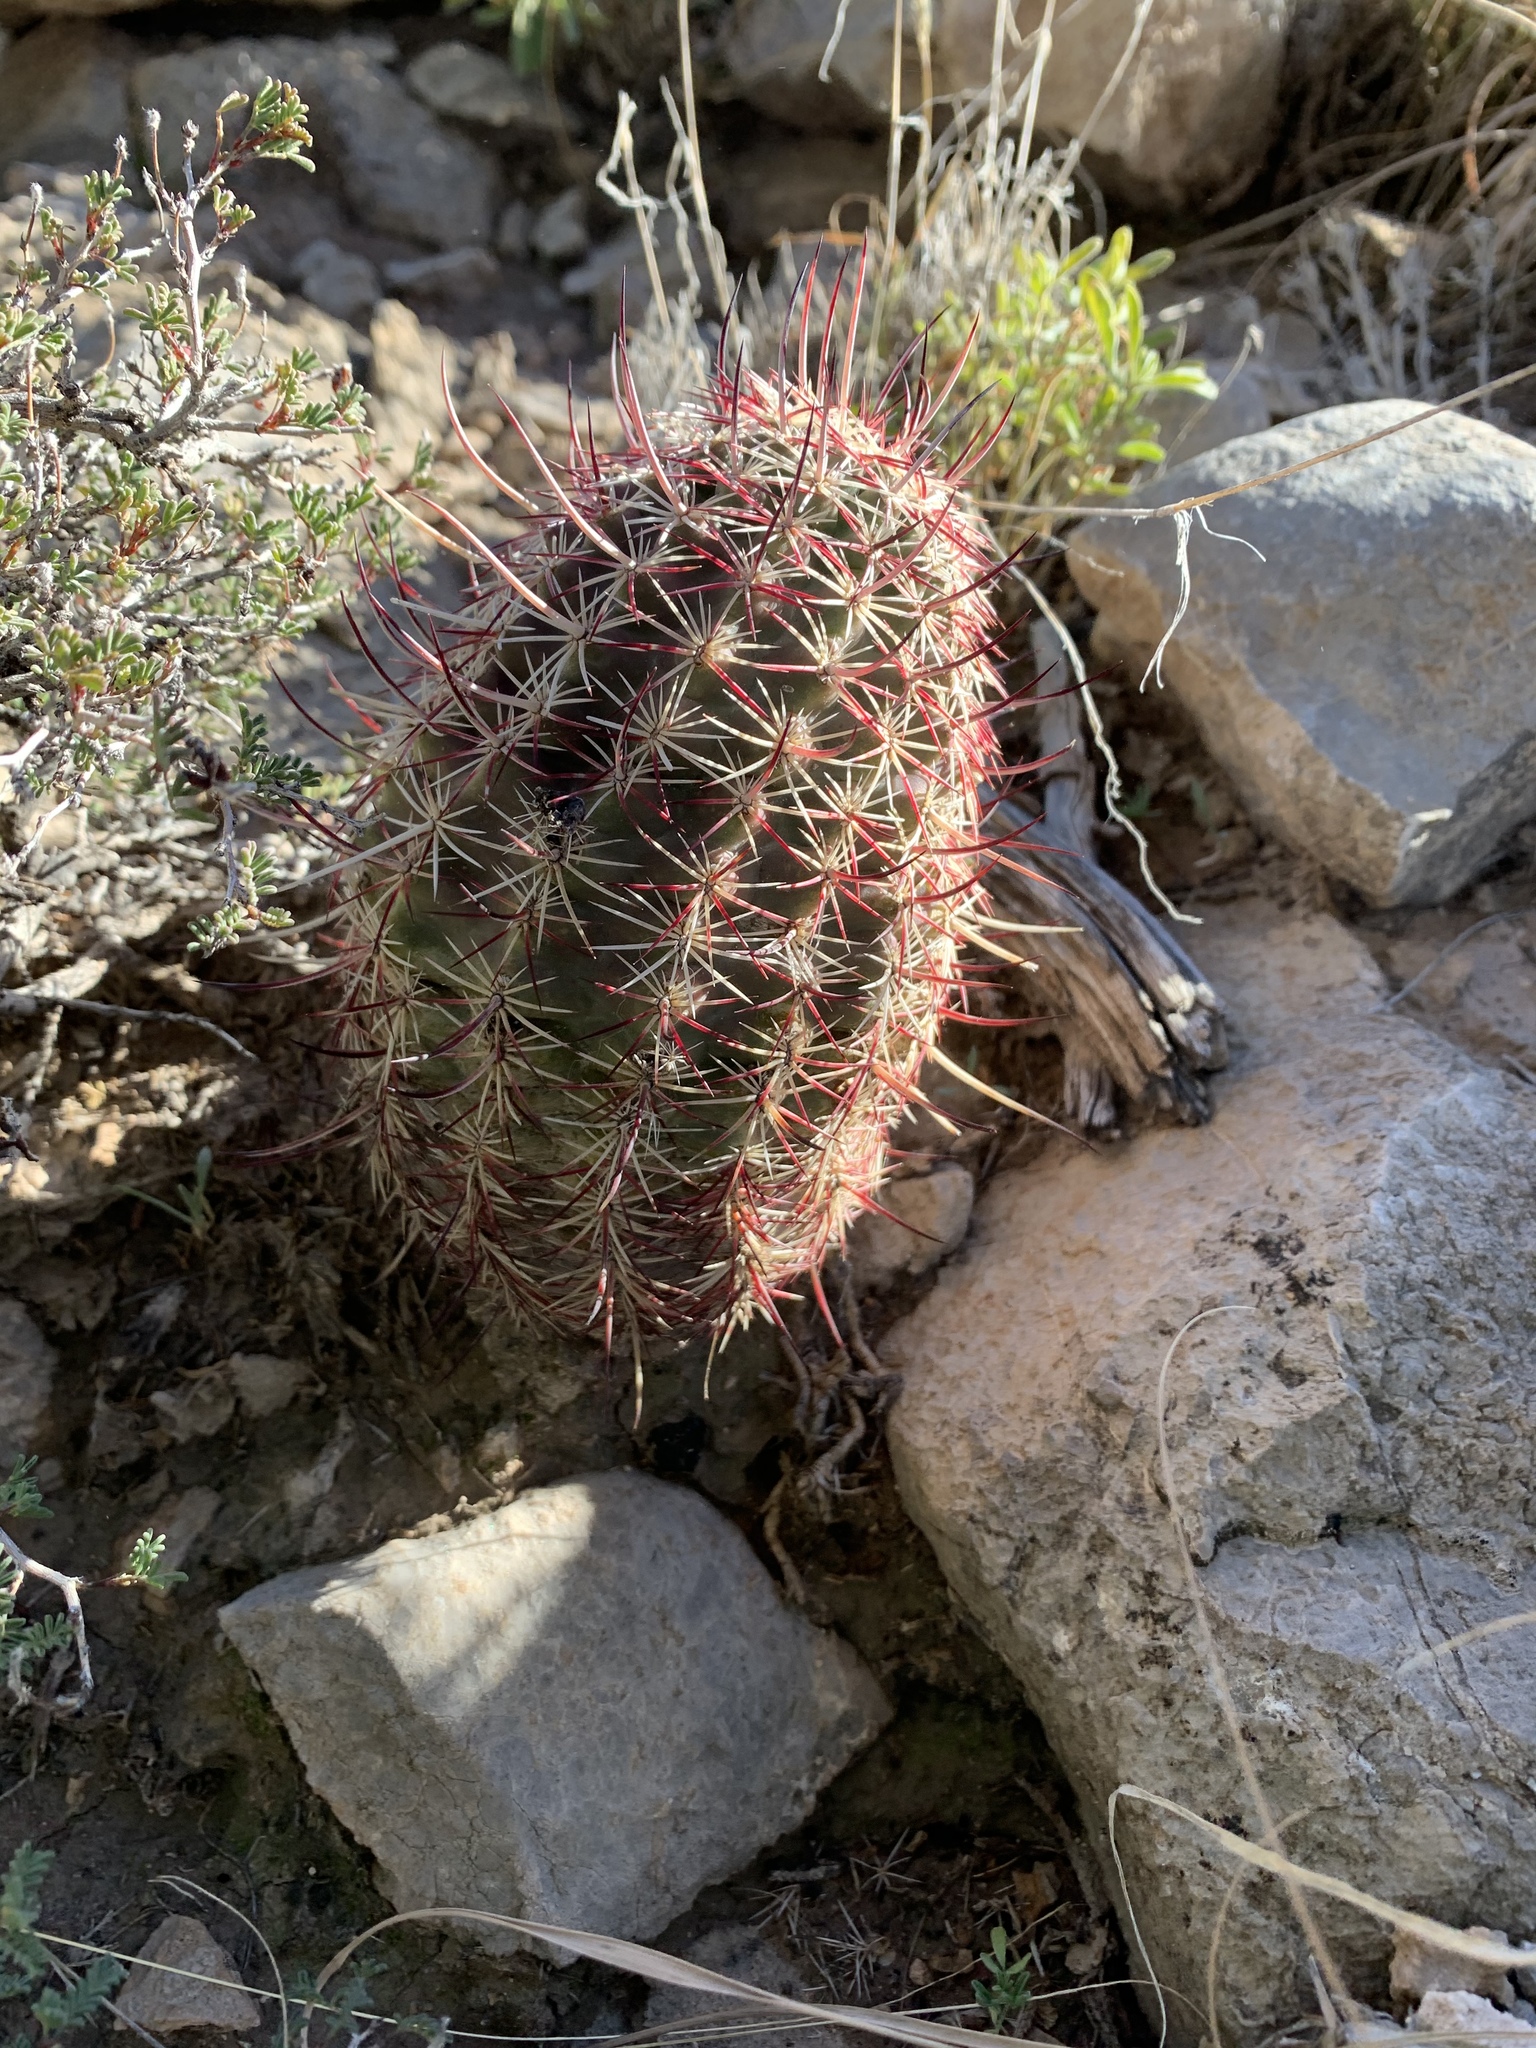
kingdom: Plantae
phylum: Tracheophyta
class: Magnoliopsida
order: Caryophyllales
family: Cactaceae
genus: Echinocereus
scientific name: Echinocereus viridiflorus
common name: Nylon hedgehog cactus
